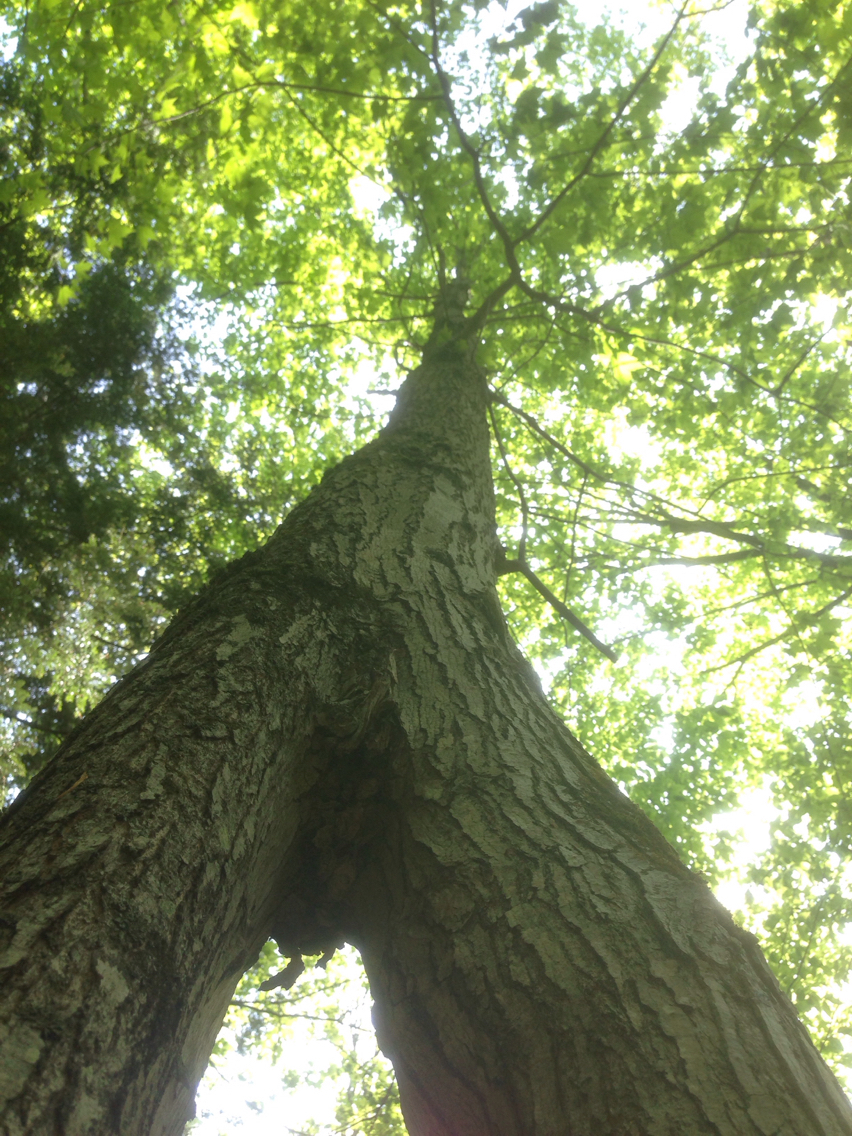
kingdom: Plantae
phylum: Tracheophyta
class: Magnoliopsida
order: Sapindales
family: Sapindaceae
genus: Acer
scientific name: Acer rubrum
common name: Red maple
